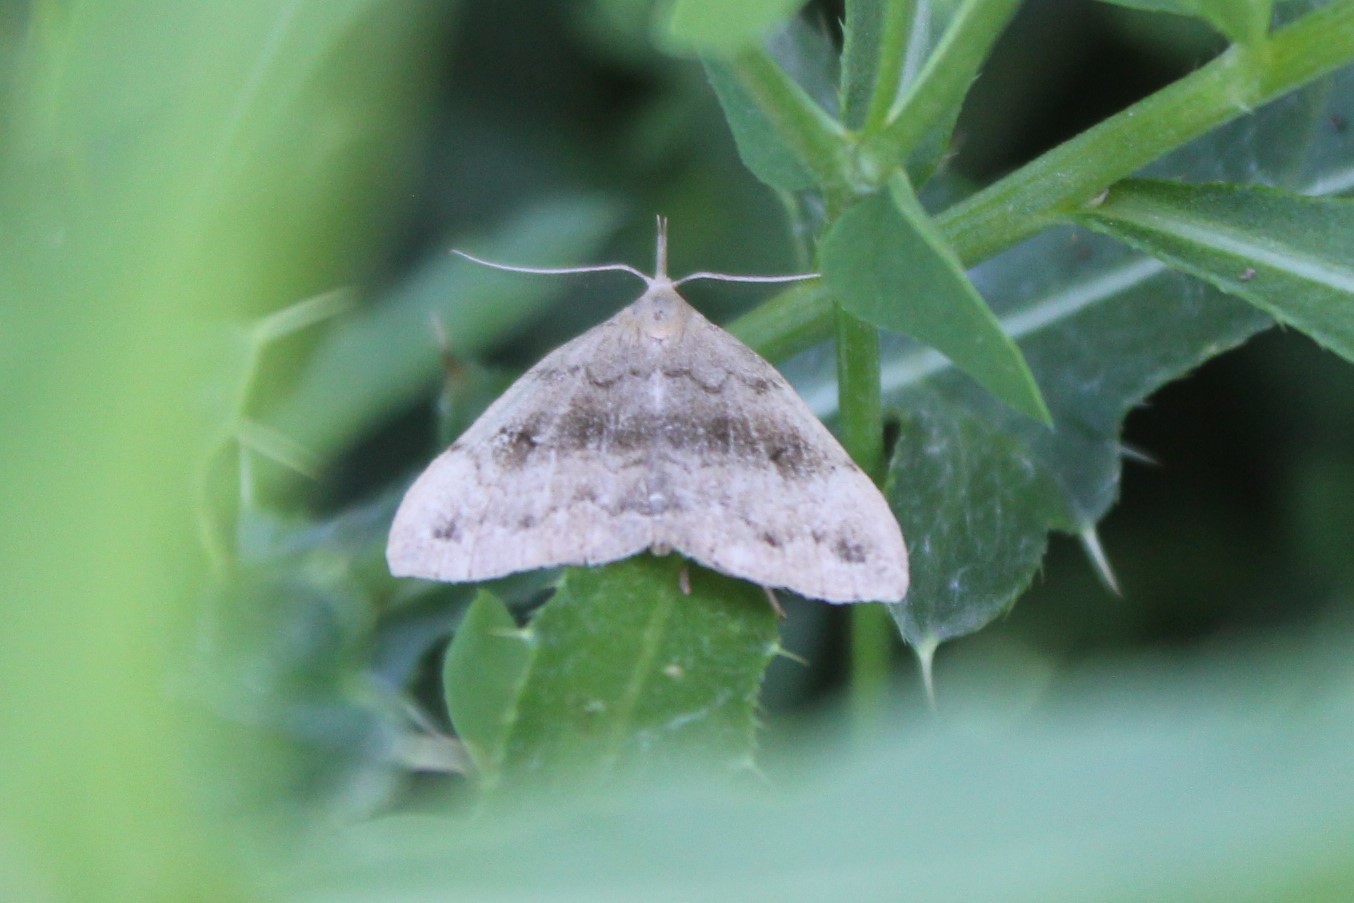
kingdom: Animalia
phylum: Arthropoda
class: Insecta
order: Lepidoptera
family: Erebidae
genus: Phalaenostola
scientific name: Phalaenostola eumelusalis
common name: Dark phalaenostola moth
